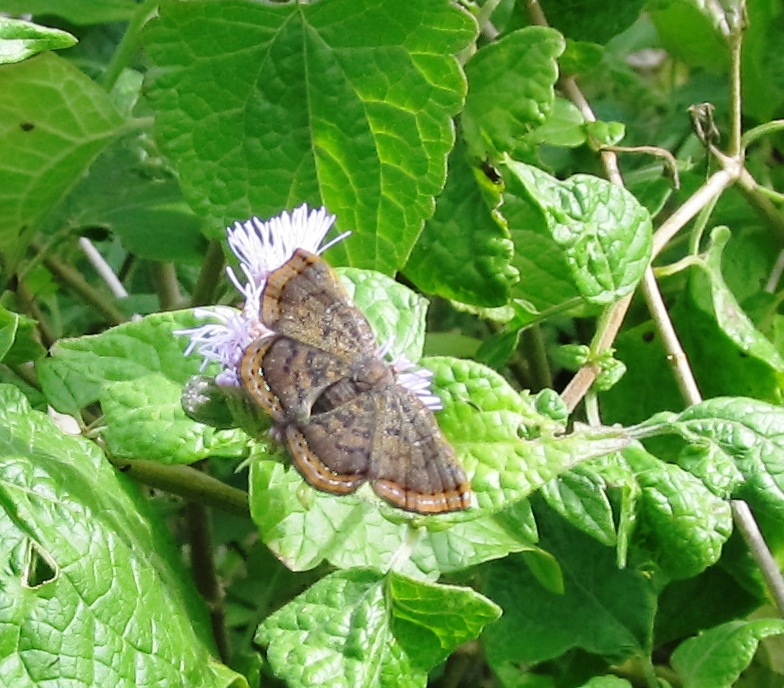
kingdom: Animalia
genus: Caria
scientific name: Caria ino
